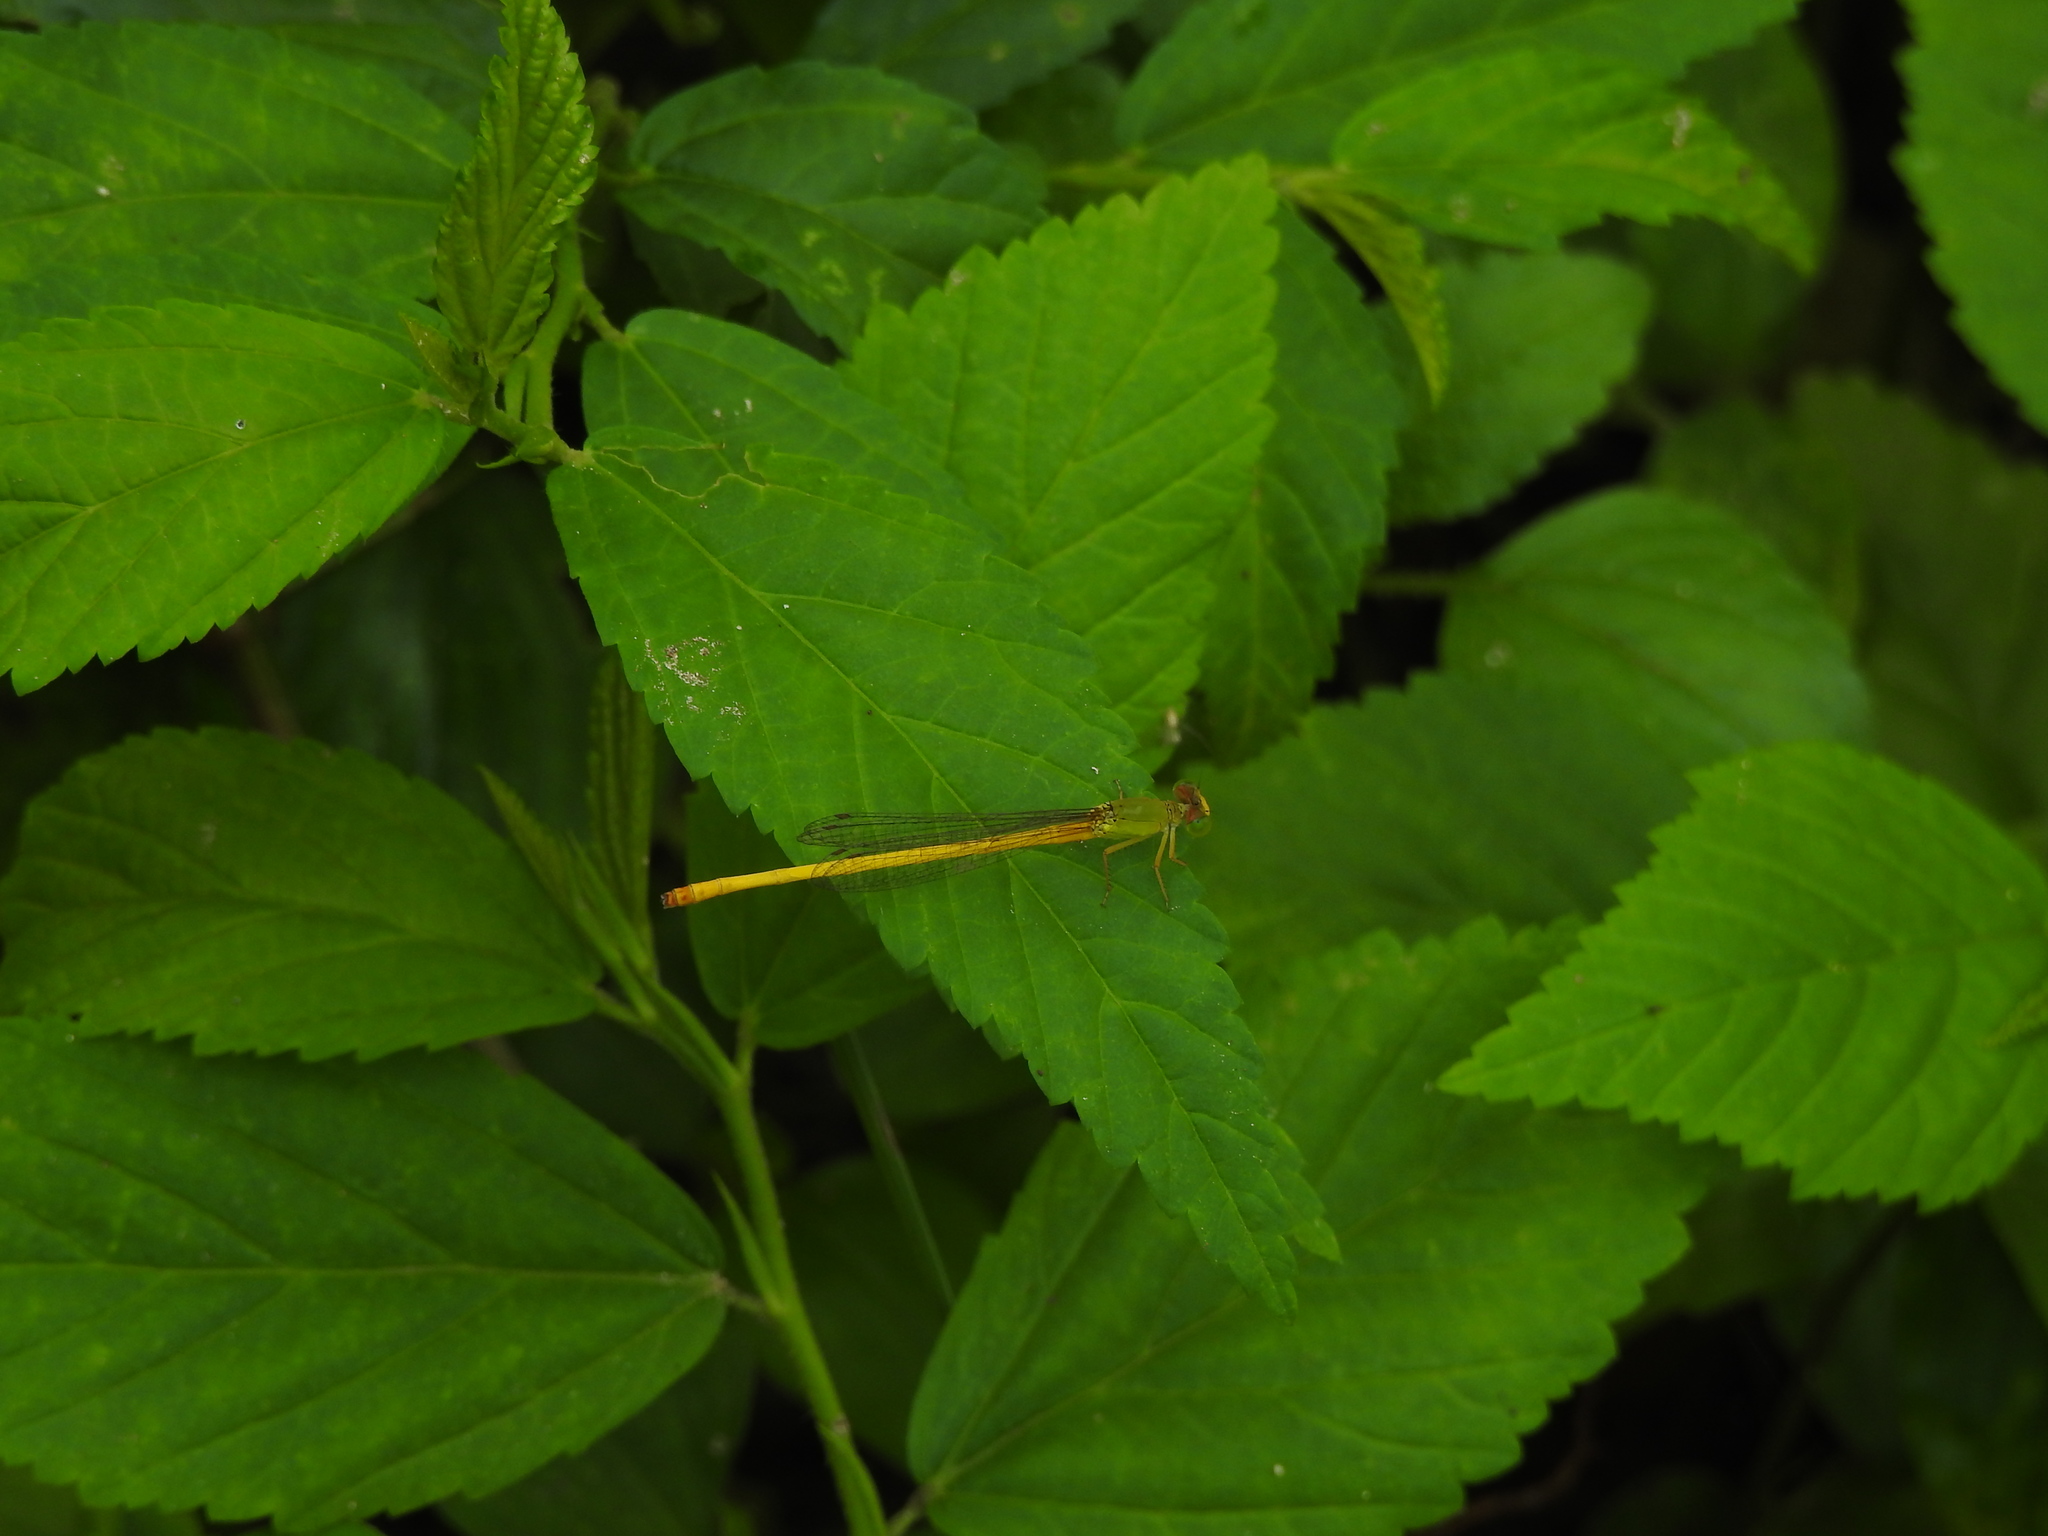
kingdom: Animalia
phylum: Arthropoda
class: Insecta
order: Odonata
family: Coenagrionidae
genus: Ceriagrion
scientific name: Ceriagrion coromandelianum
